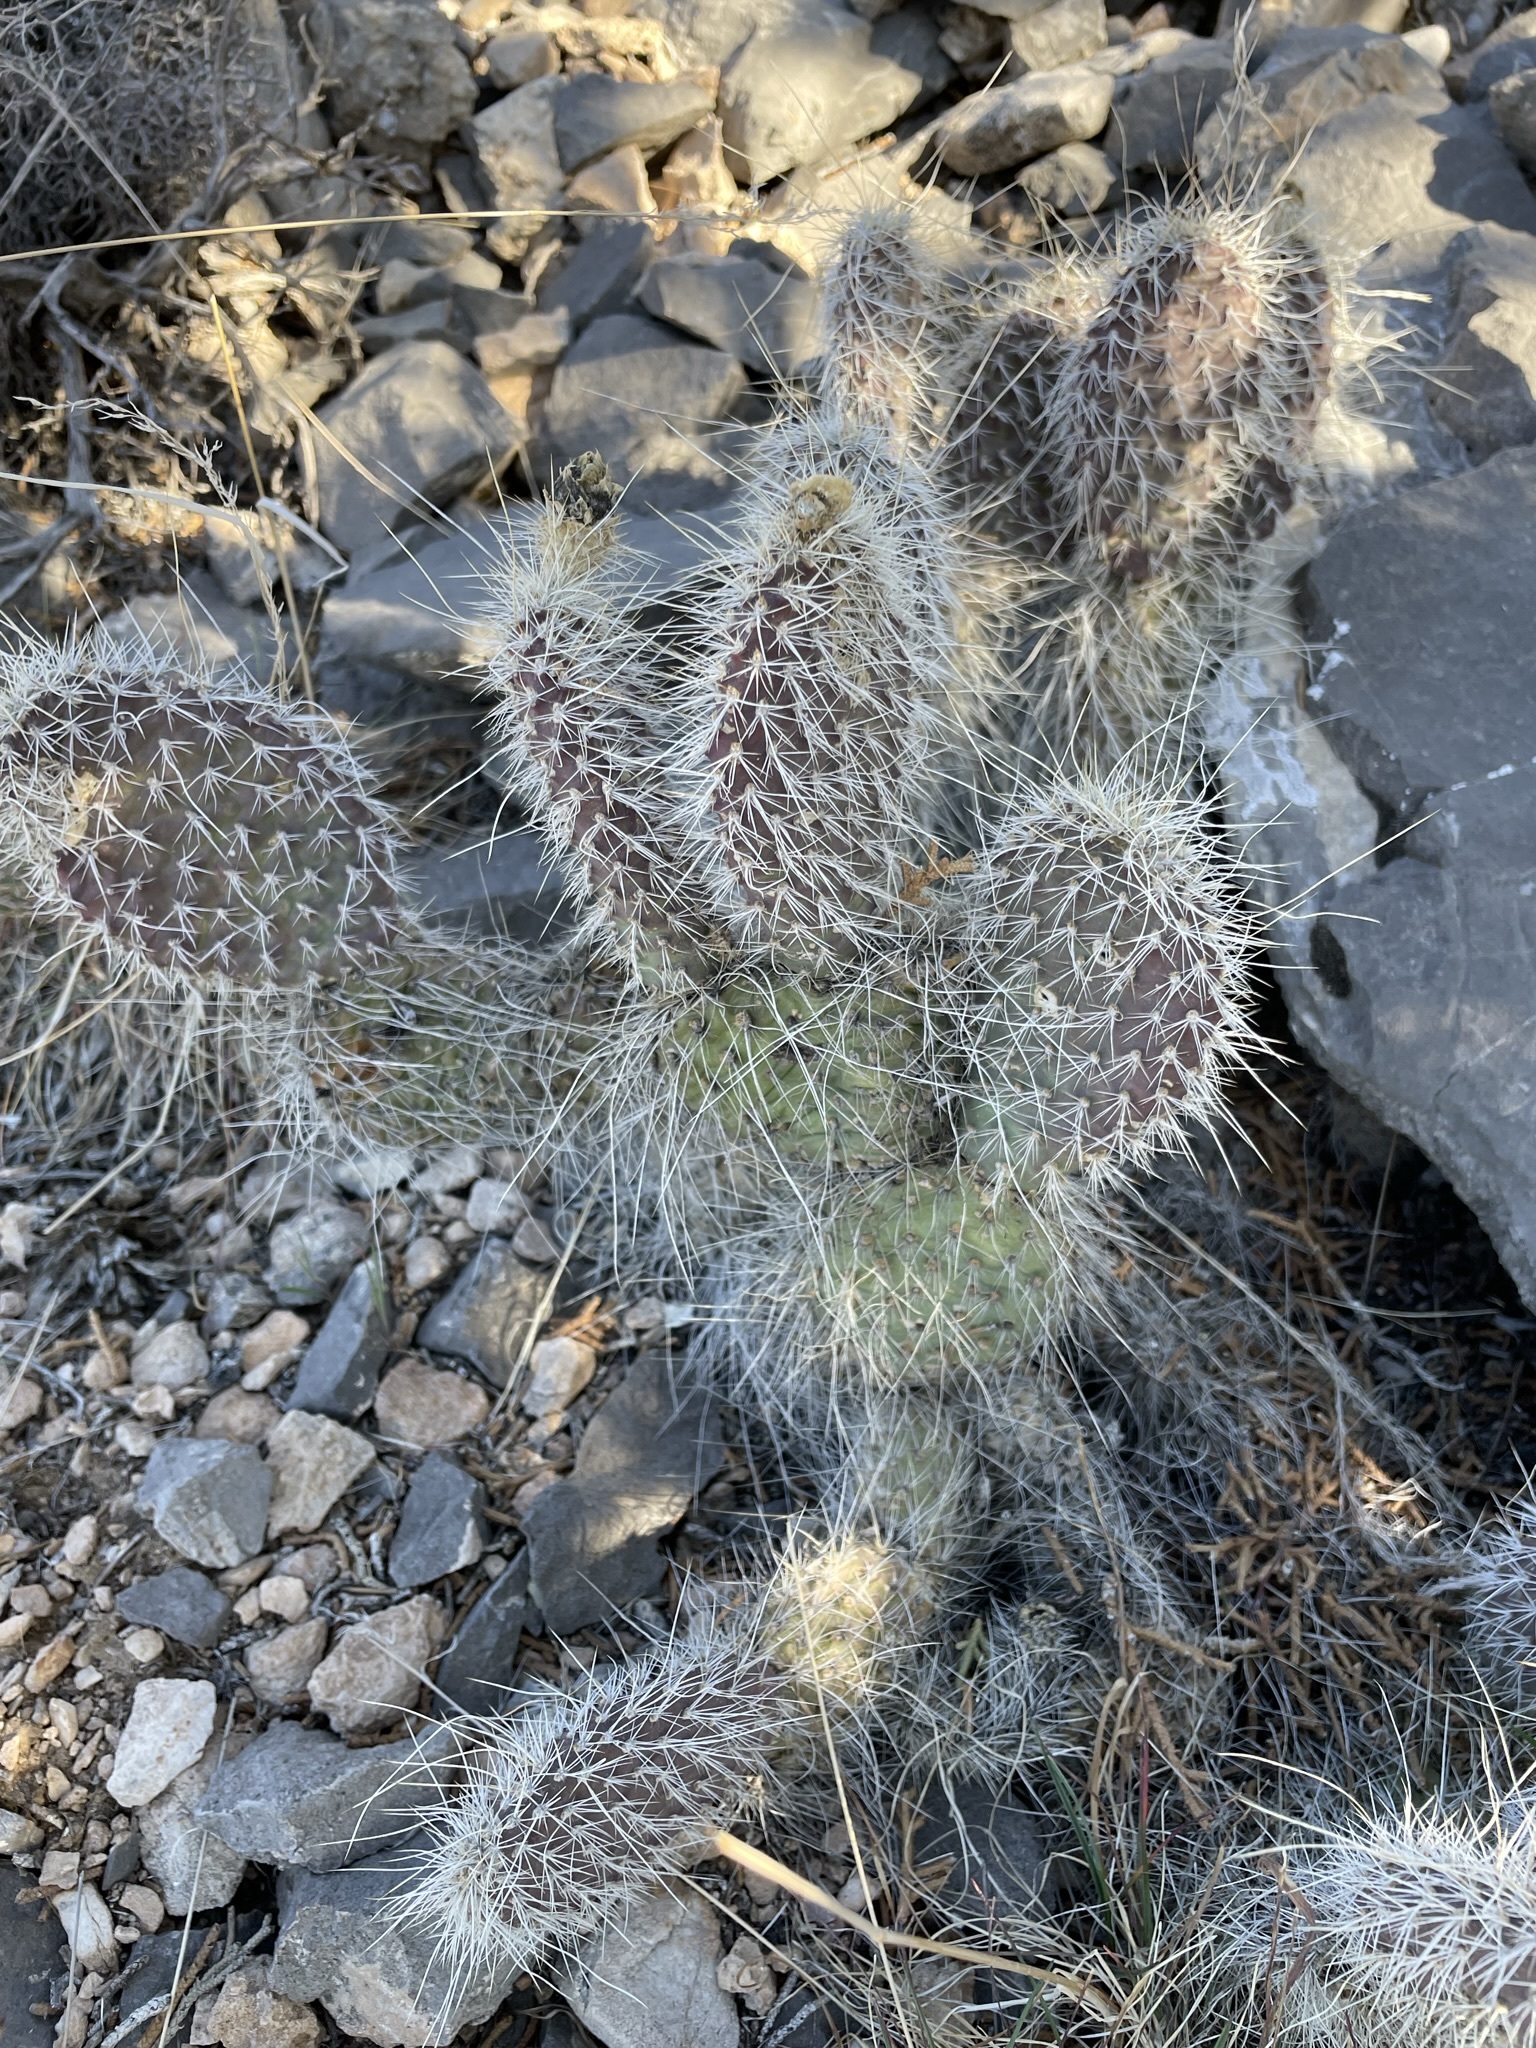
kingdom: Plantae
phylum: Tracheophyta
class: Magnoliopsida
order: Caryophyllales
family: Cactaceae
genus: Opuntia
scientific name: Opuntia polyacantha
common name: Plains prickly-pear
